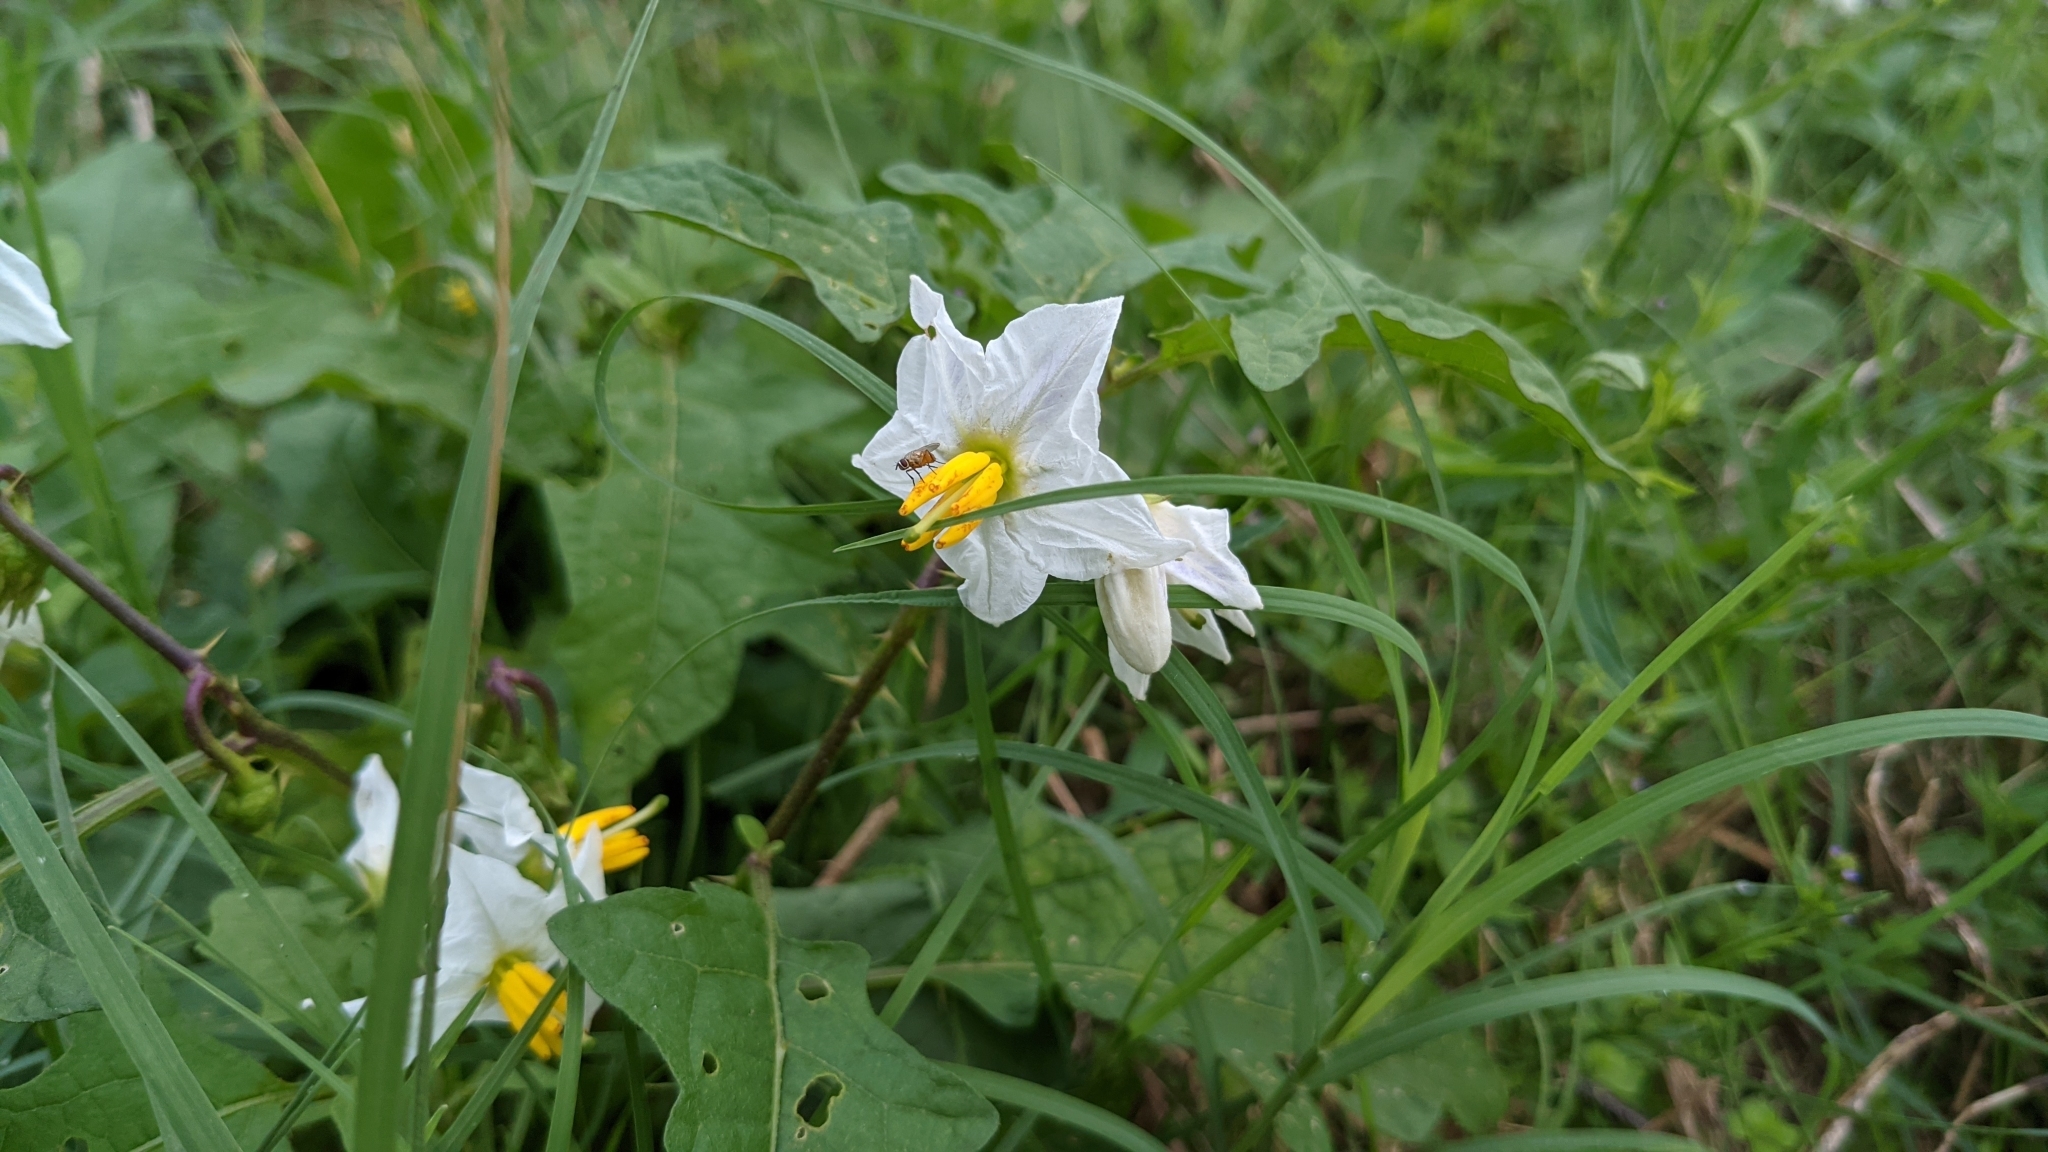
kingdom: Plantae
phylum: Tracheophyta
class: Magnoliopsida
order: Solanales
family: Solanaceae
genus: Solanum
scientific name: Solanum carolinense
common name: Horse-nettle
